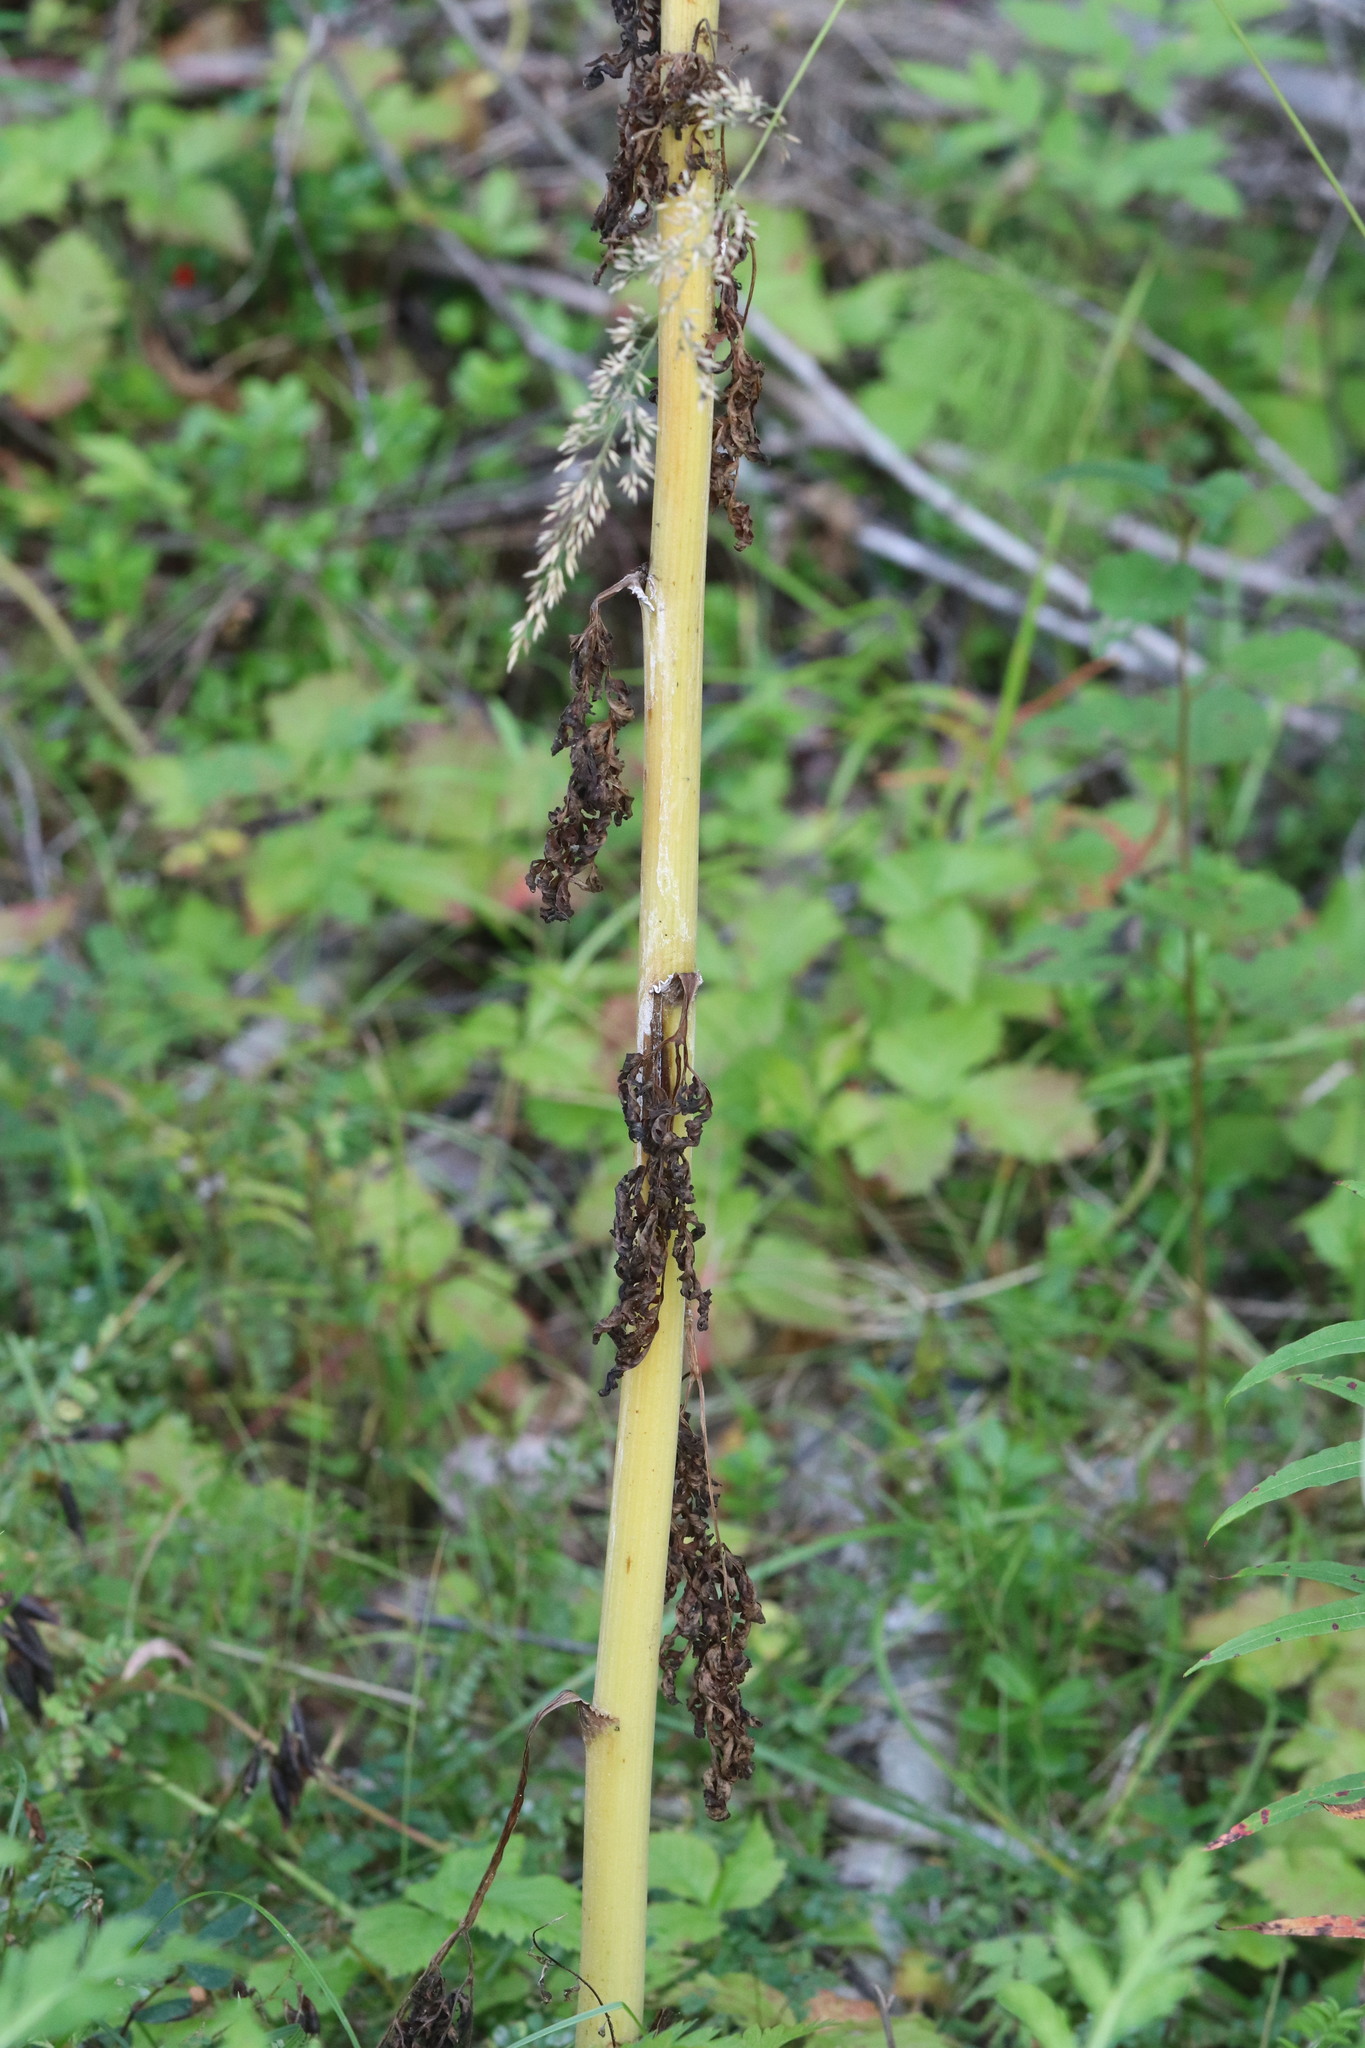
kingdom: Plantae
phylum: Tracheophyta
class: Magnoliopsida
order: Apiales
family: Apiaceae
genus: Pleurospermum
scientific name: Pleurospermum uralense
